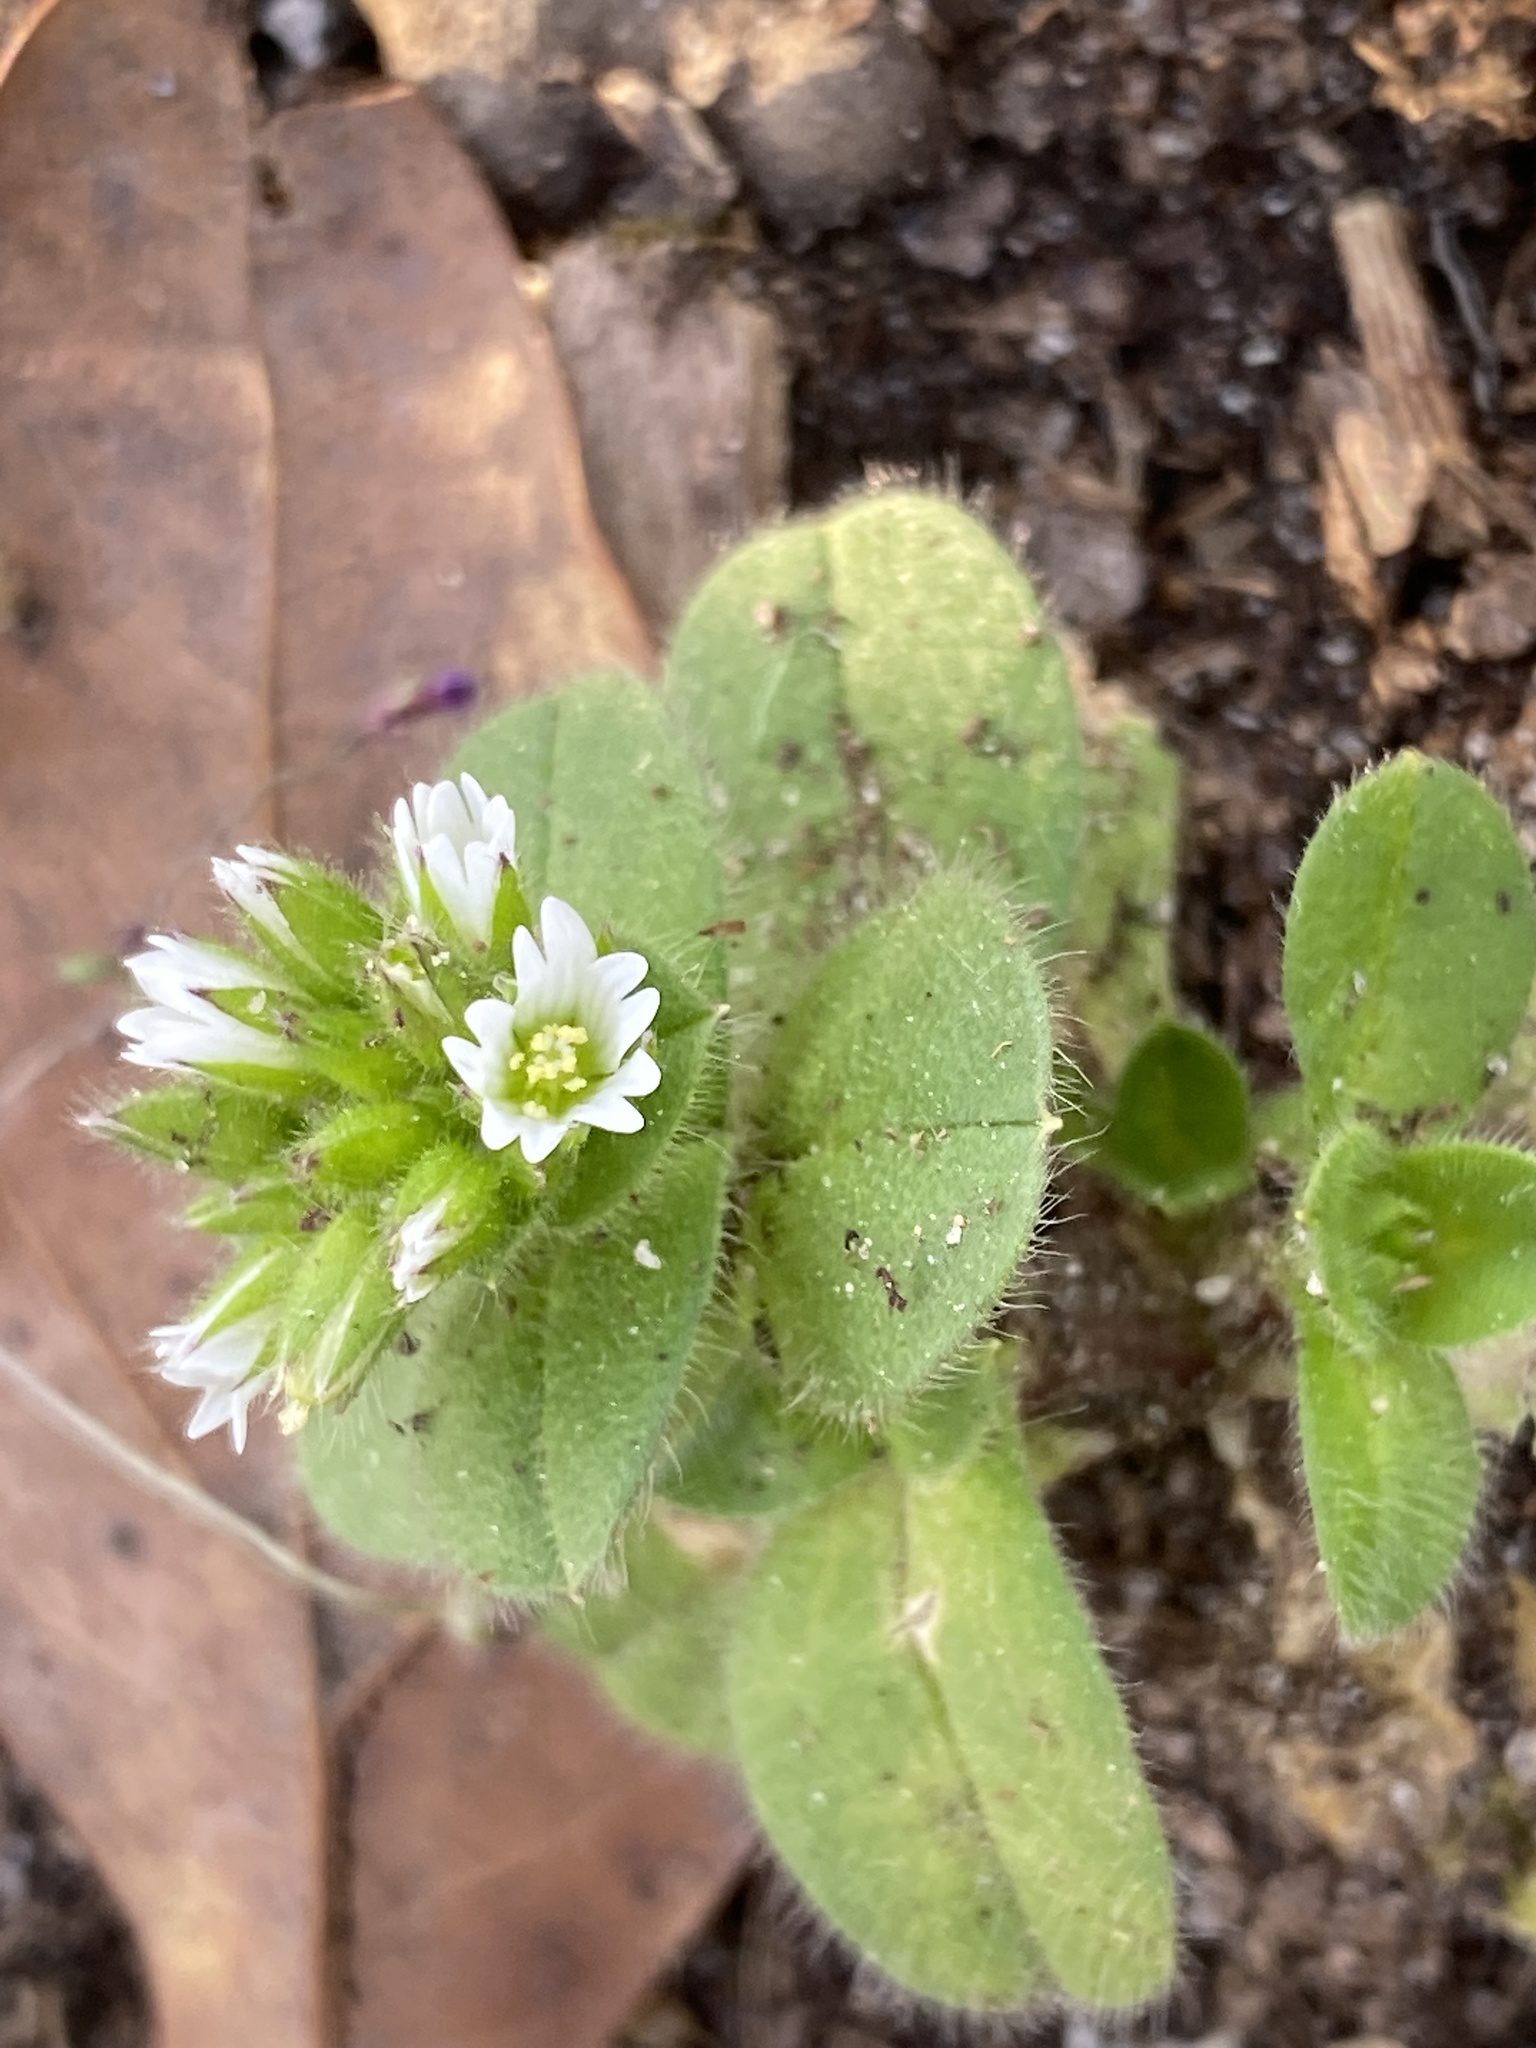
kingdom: Plantae
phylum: Tracheophyta
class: Magnoliopsida
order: Caryophyllales
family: Caryophyllaceae
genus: Cerastium
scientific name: Cerastium glomeratum
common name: Sticky chickweed
